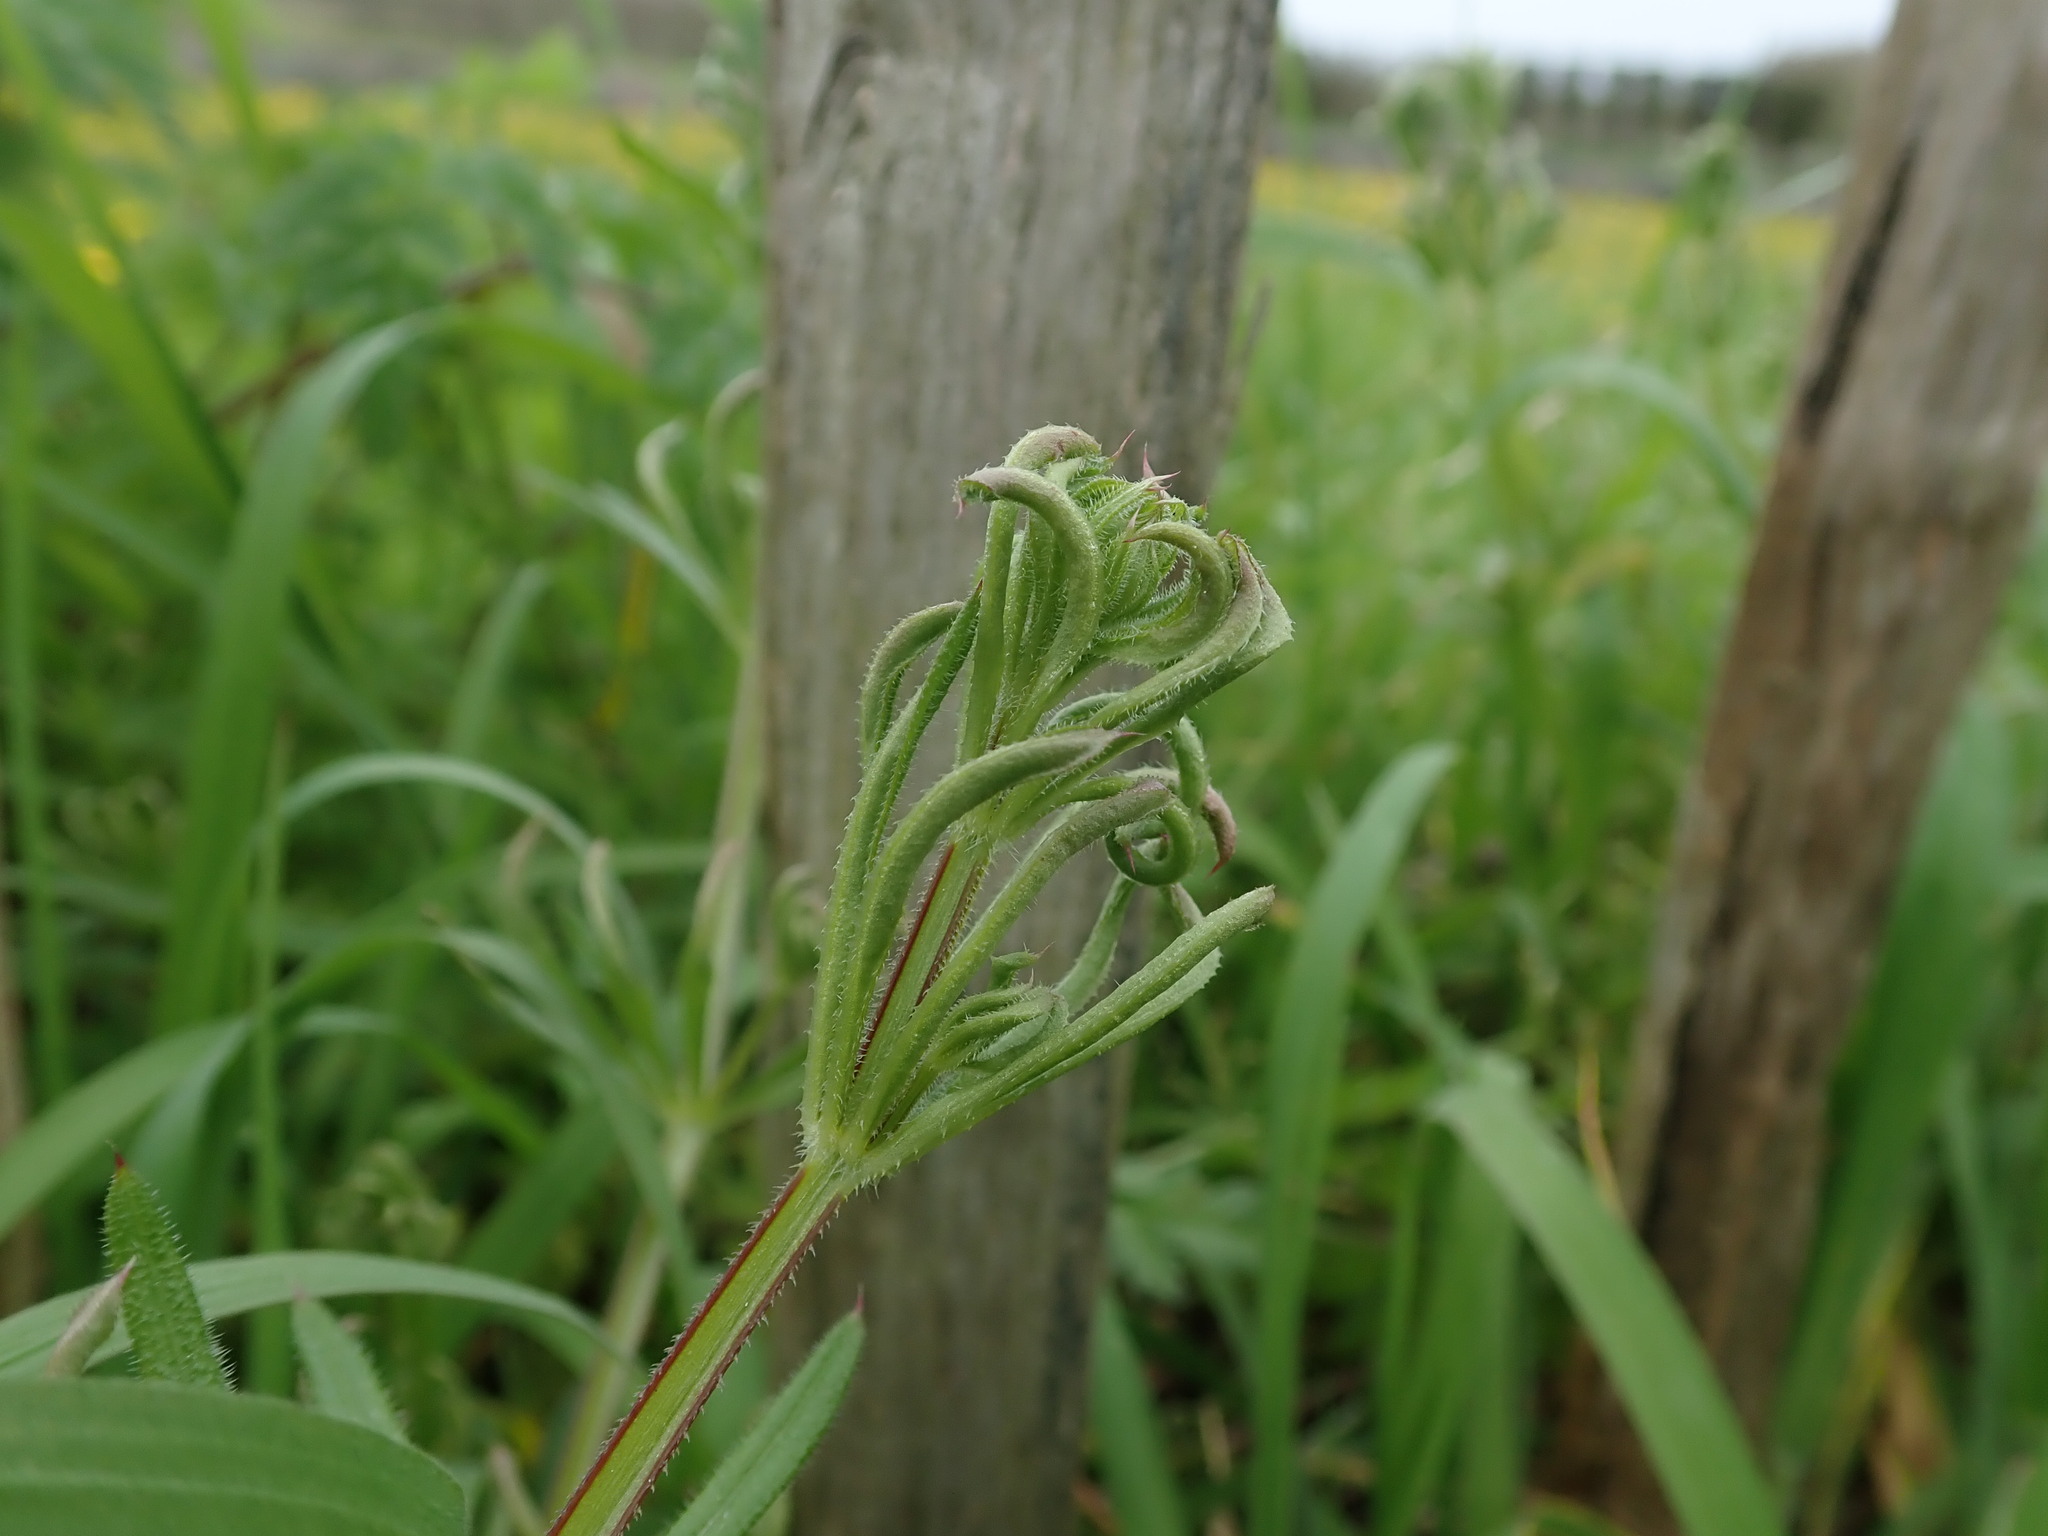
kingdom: Animalia
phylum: Arthropoda
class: Arachnida
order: Trombidiformes
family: Eriophyidae
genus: Cecidophyes
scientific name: Cecidophyes rouhollahi
